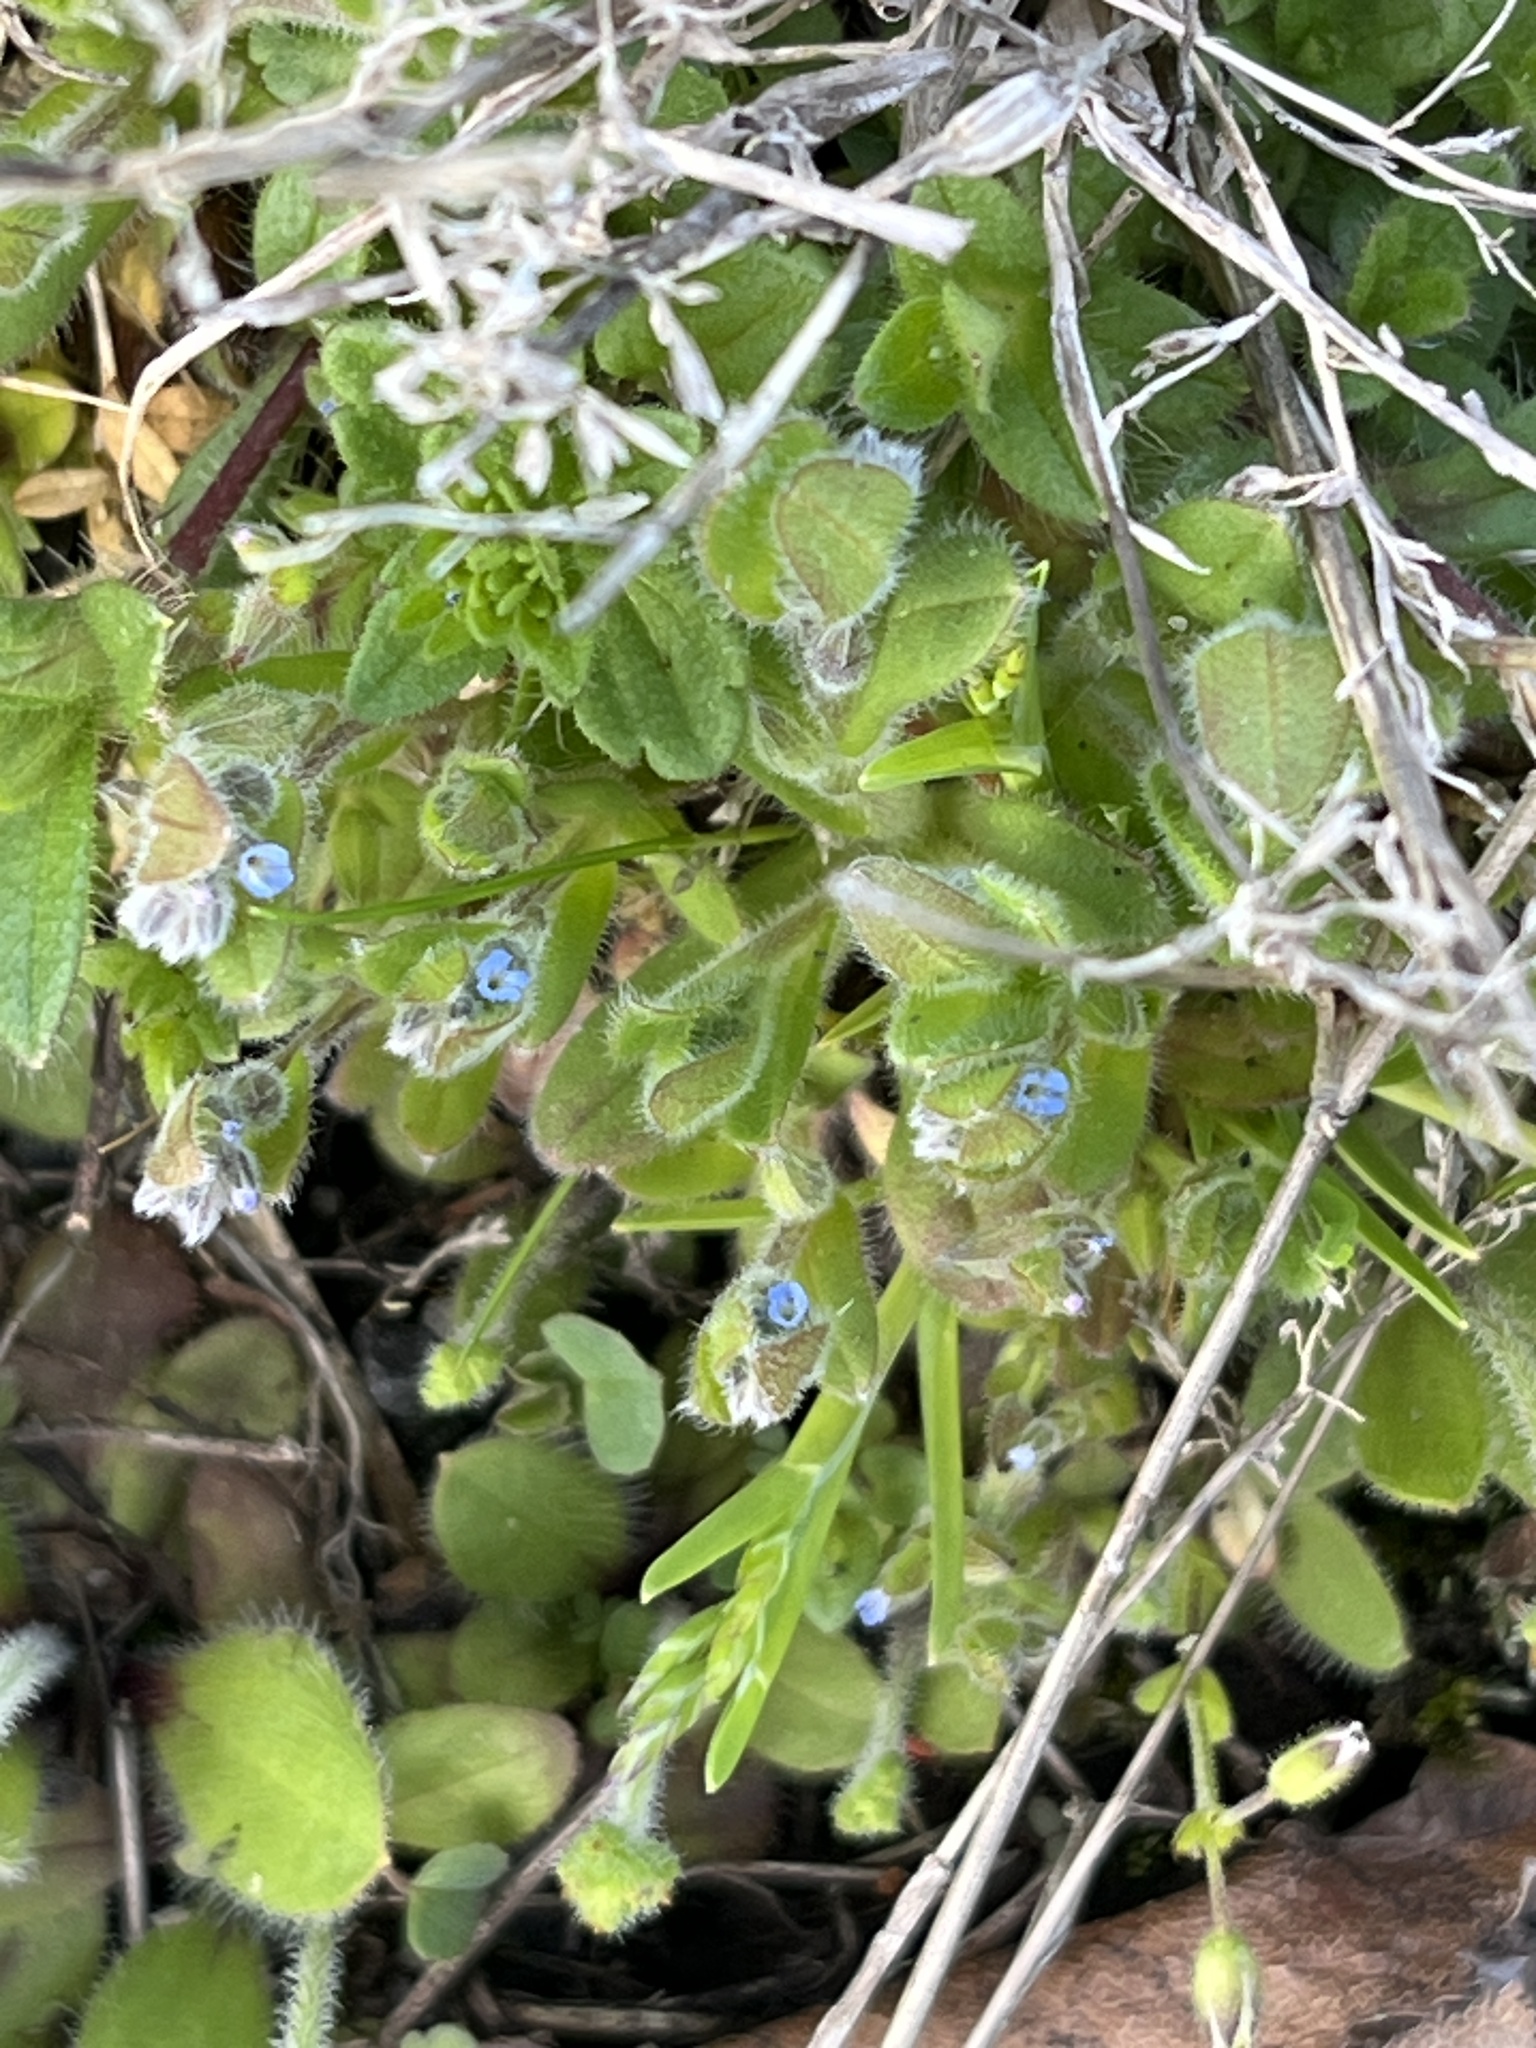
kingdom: Plantae
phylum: Tracheophyta
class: Magnoliopsida
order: Boraginales
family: Boraginaceae
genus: Myosotis
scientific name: Myosotis stricta
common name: Strict forget-me-not
